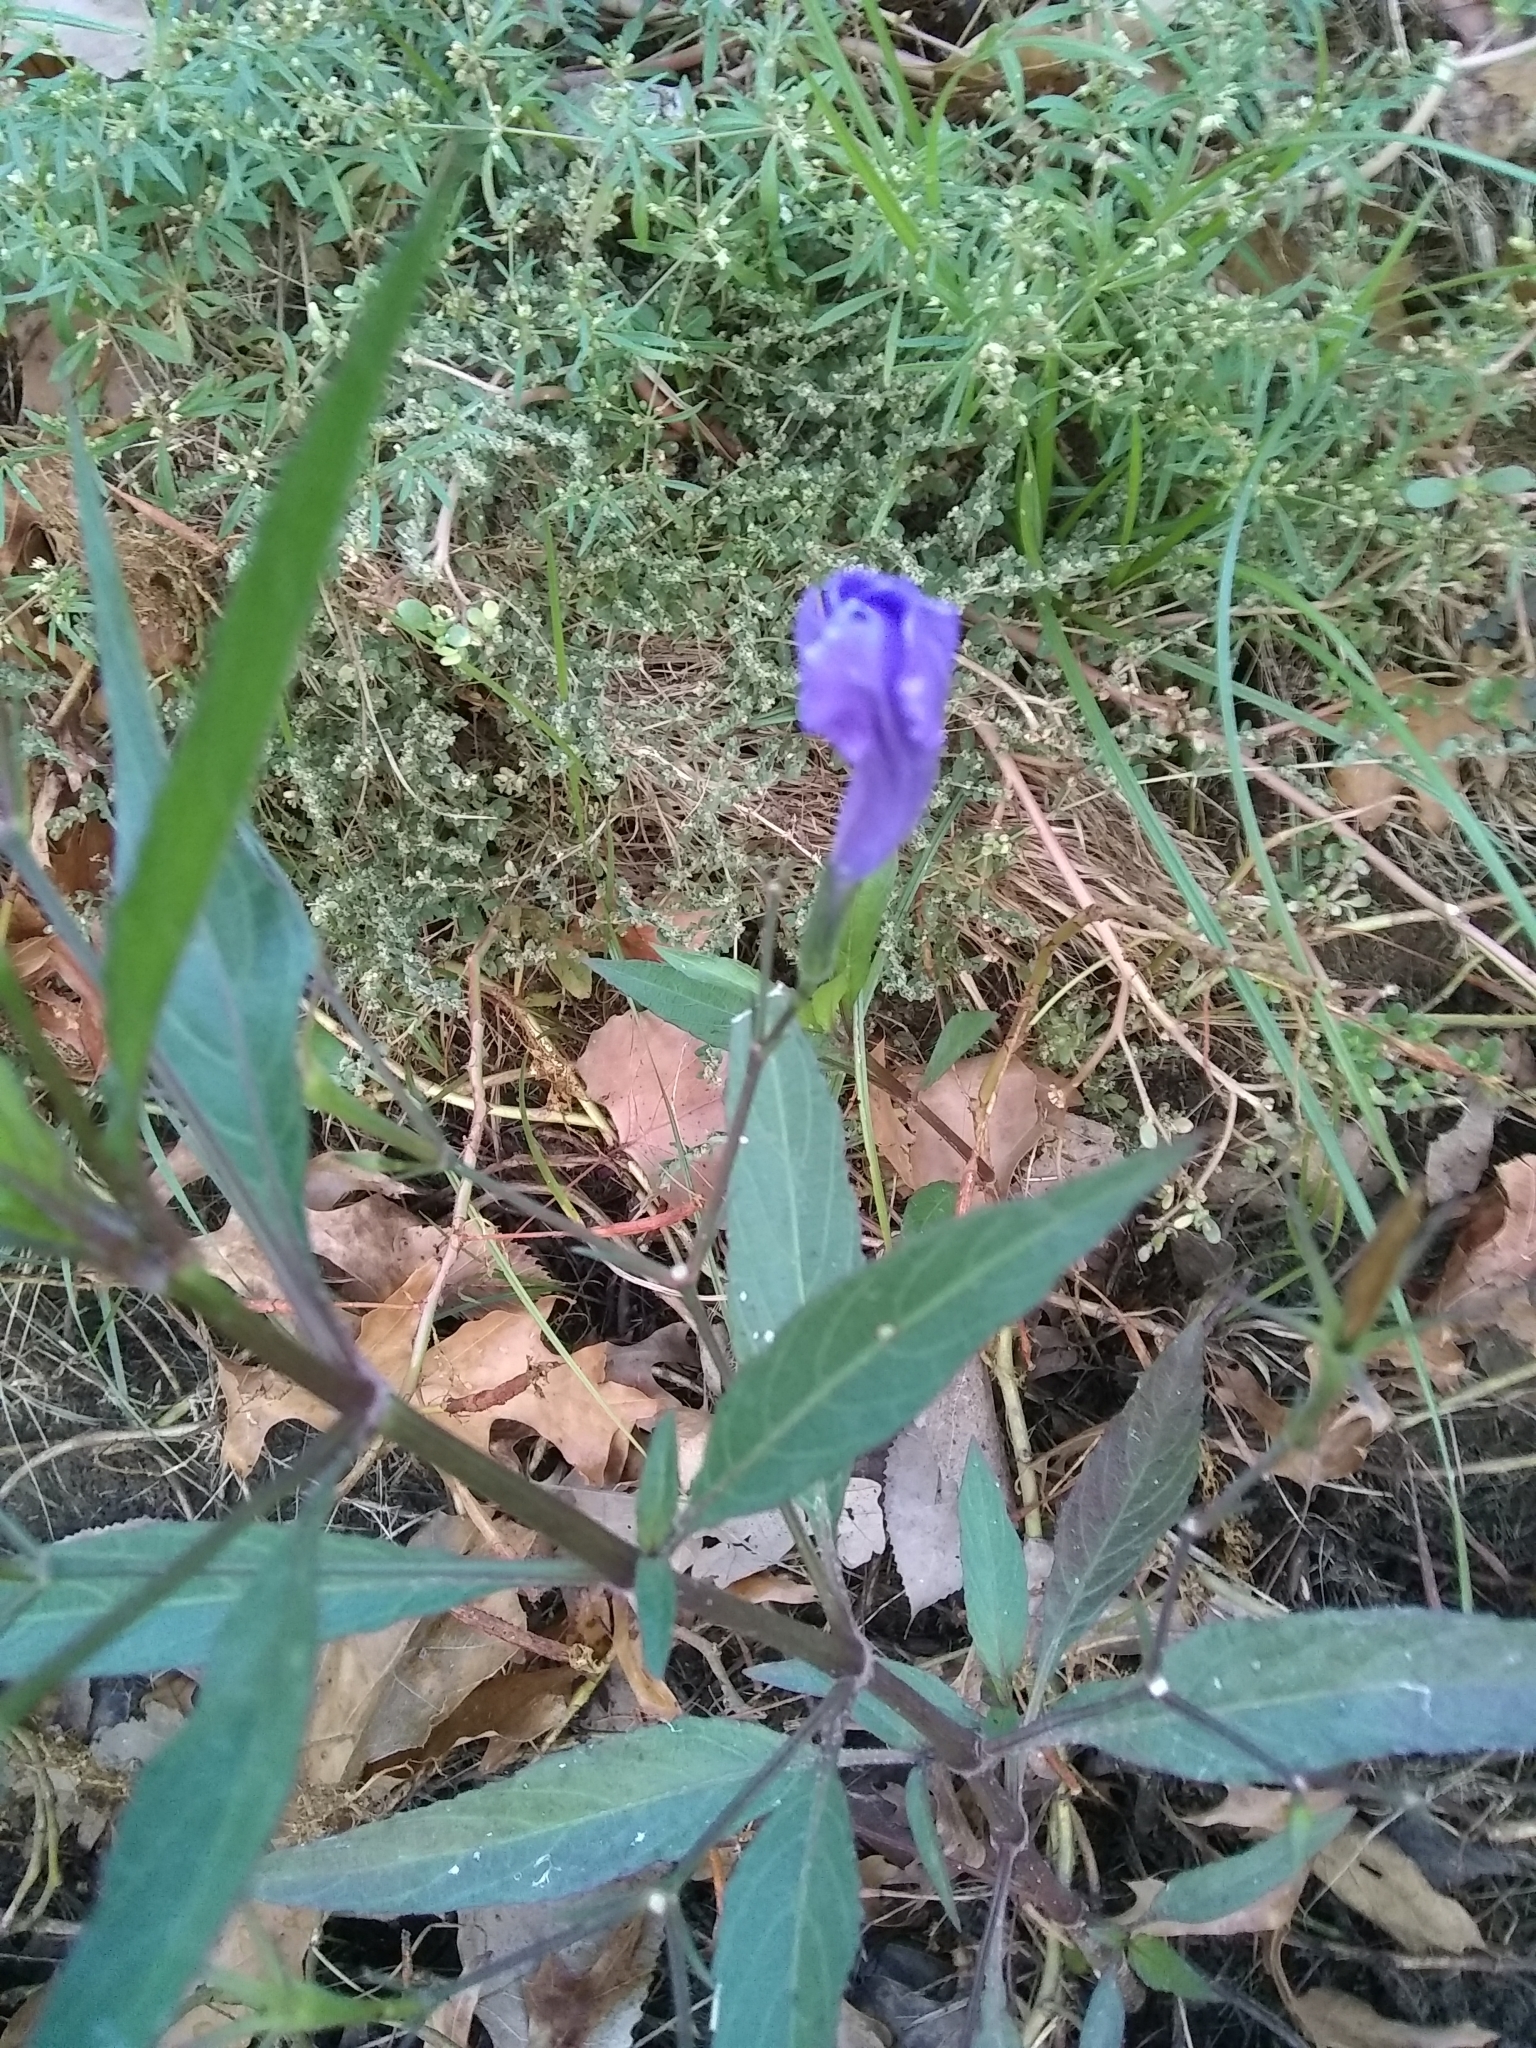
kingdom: Plantae
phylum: Tracheophyta
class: Magnoliopsida
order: Lamiales
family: Acanthaceae
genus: Ruellia
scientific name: Ruellia simplex
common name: Softseed wild petunia
